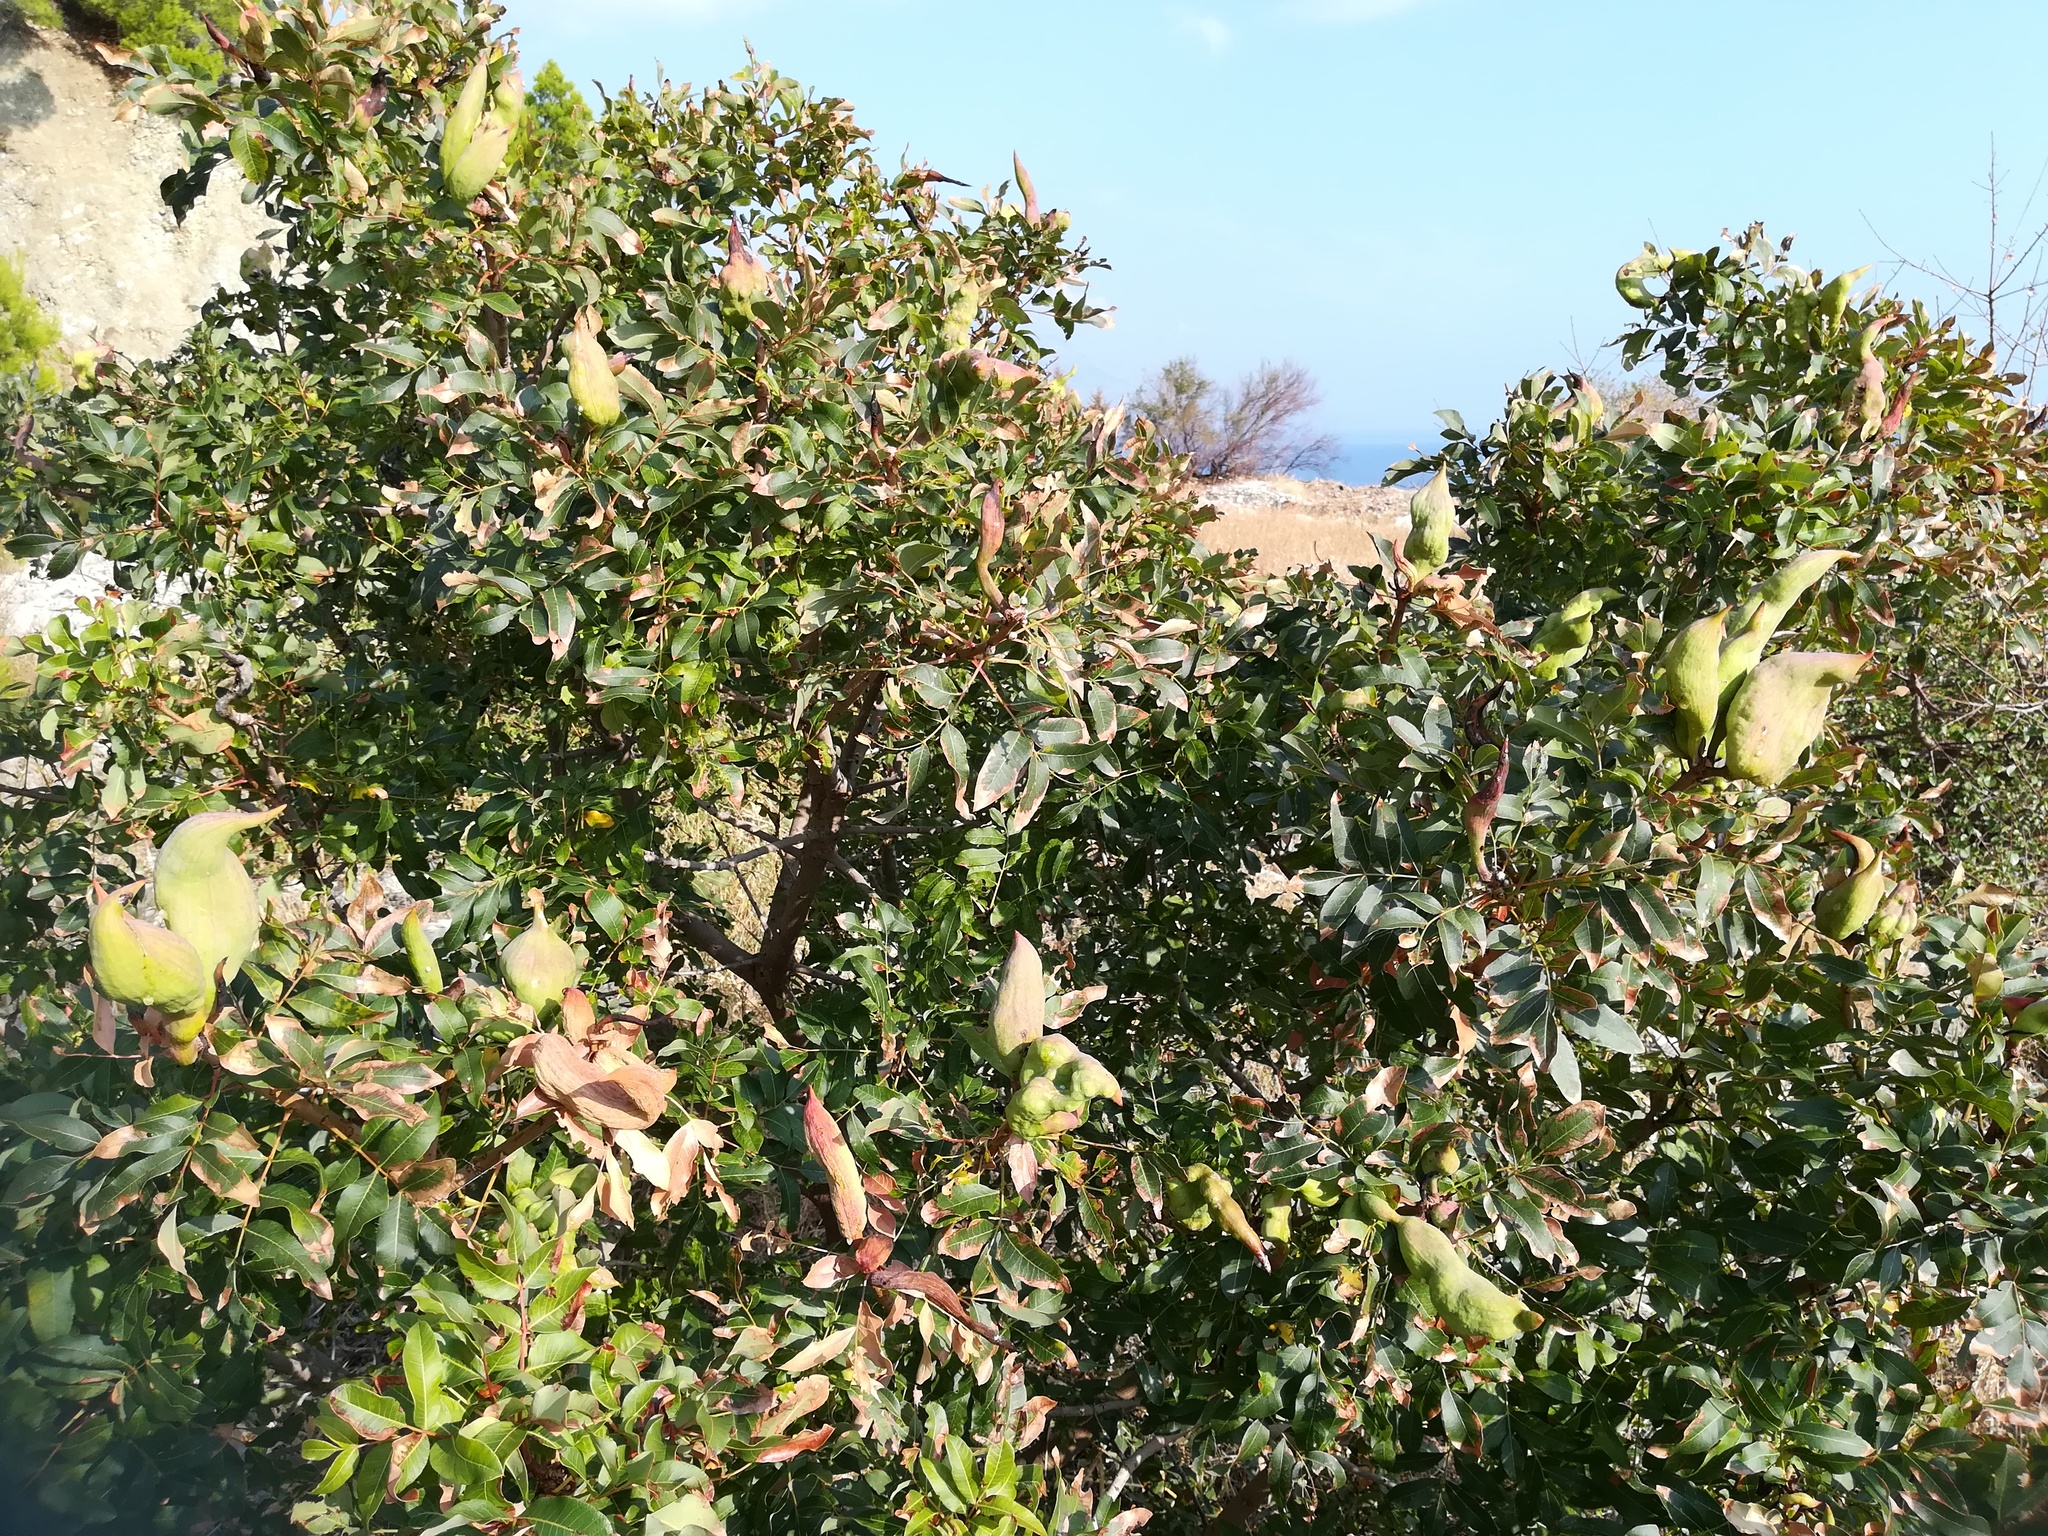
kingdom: Plantae
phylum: Tracheophyta
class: Magnoliopsida
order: Sapindales
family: Anacardiaceae
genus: Pistacia
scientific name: Pistacia terebinthus
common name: Terebinth
